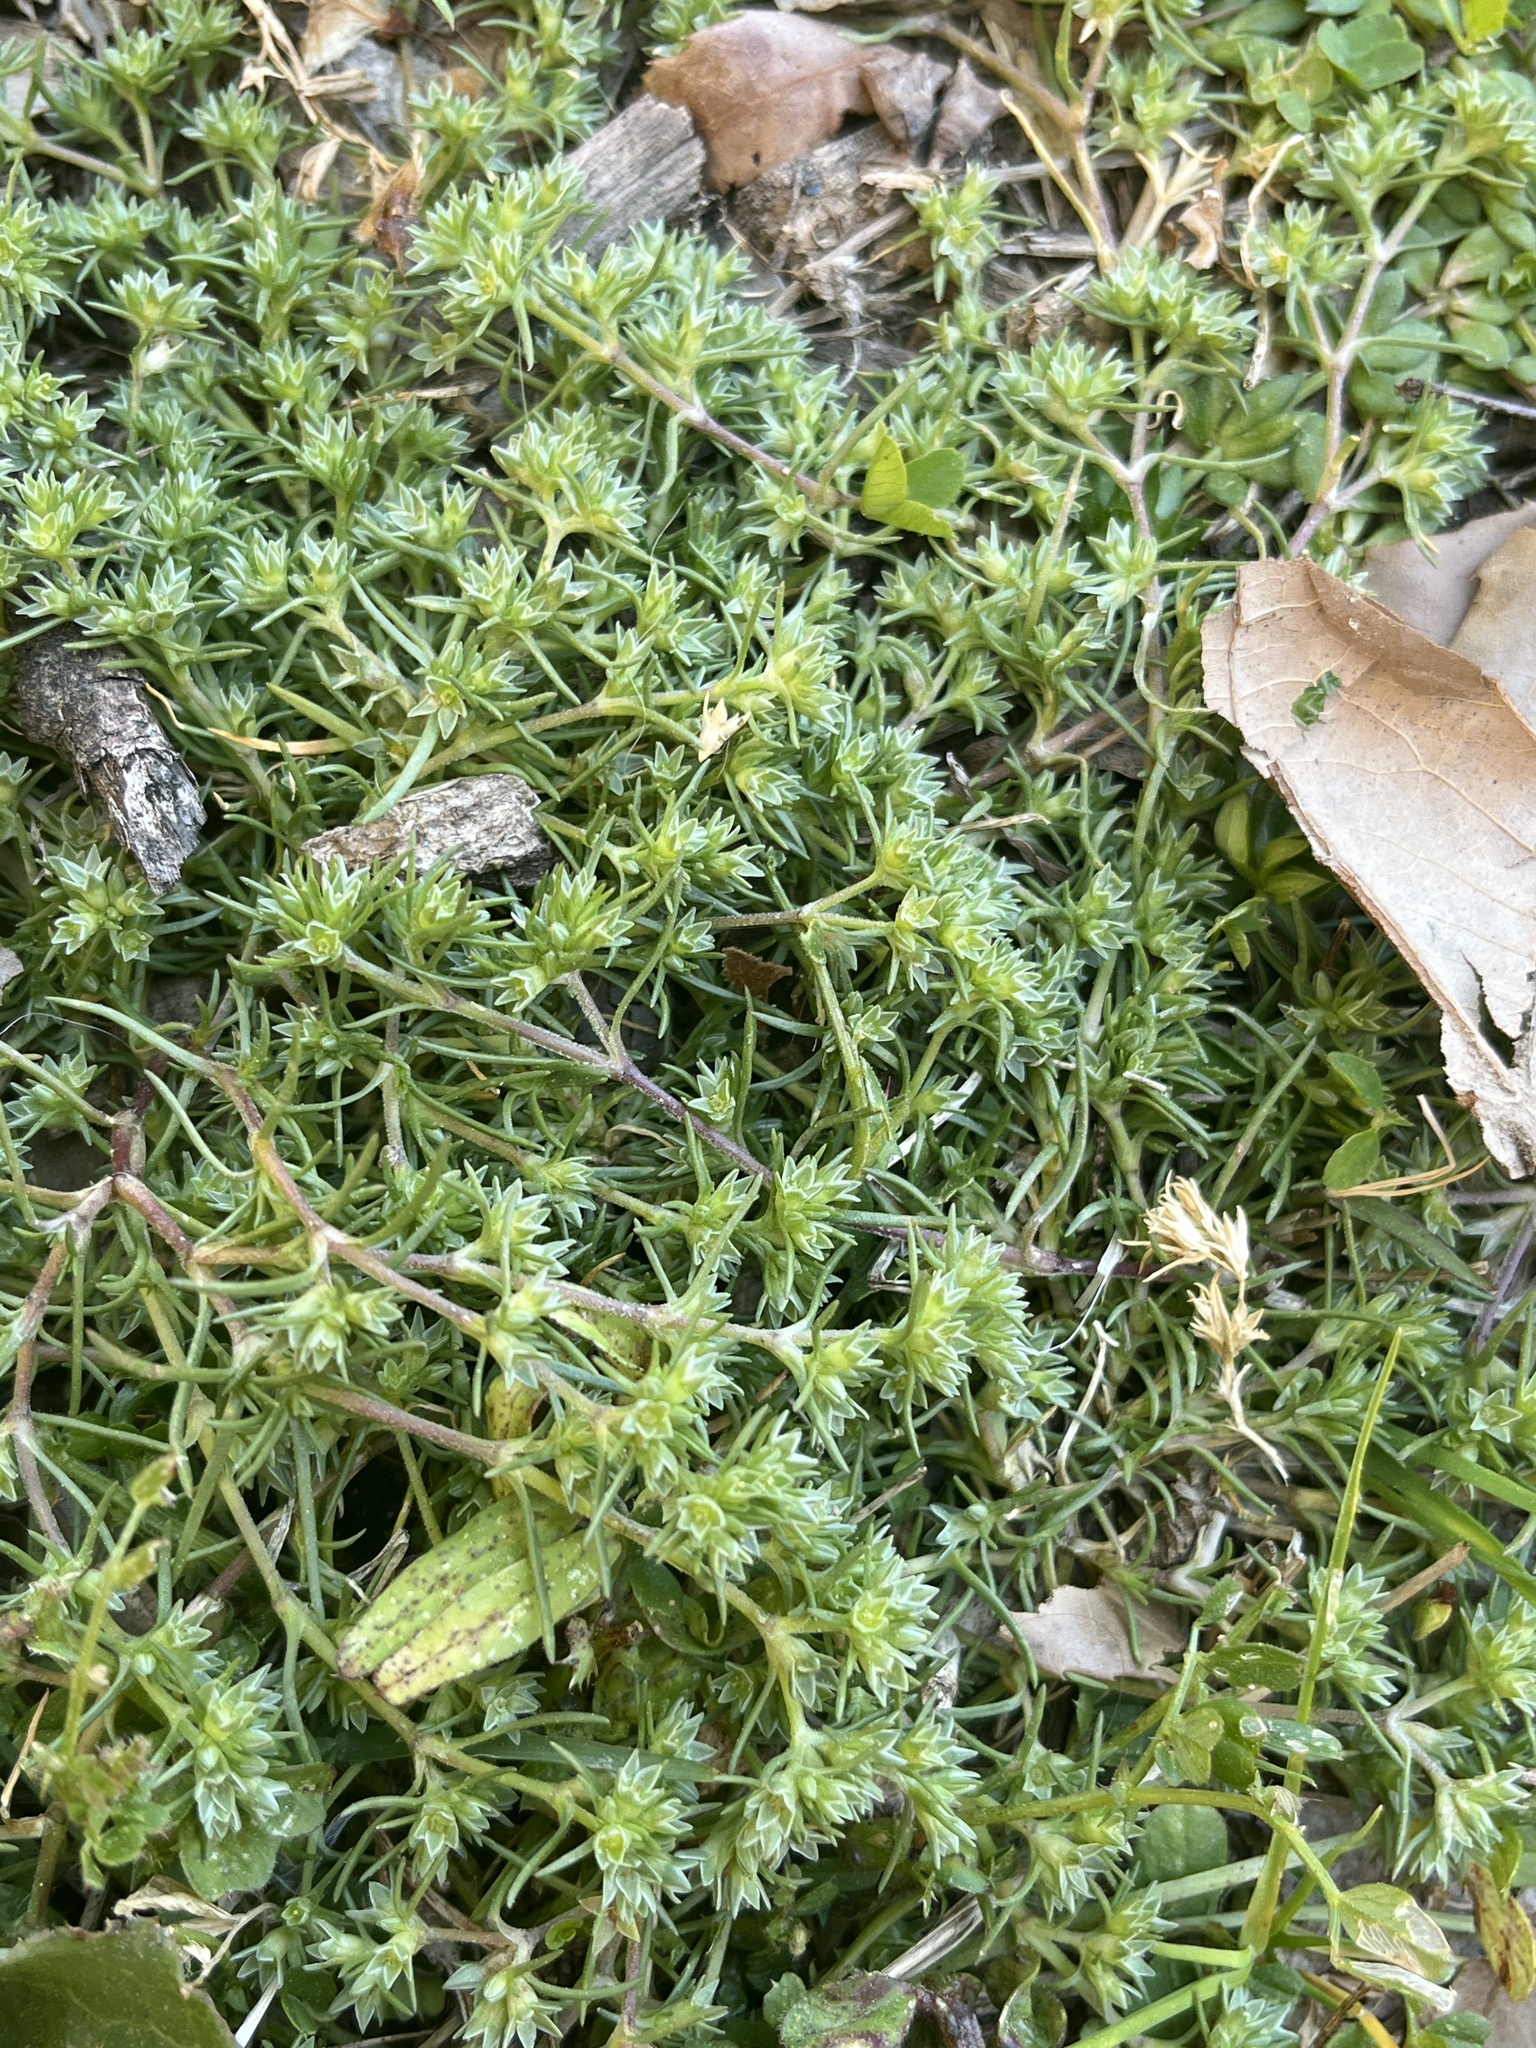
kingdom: Plantae
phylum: Tracheophyta
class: Magnoliopsida
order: Caryophyllales
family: Caryophyllaceae
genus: Scleranthus
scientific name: Scleranthus annuus
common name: Annual knawel
